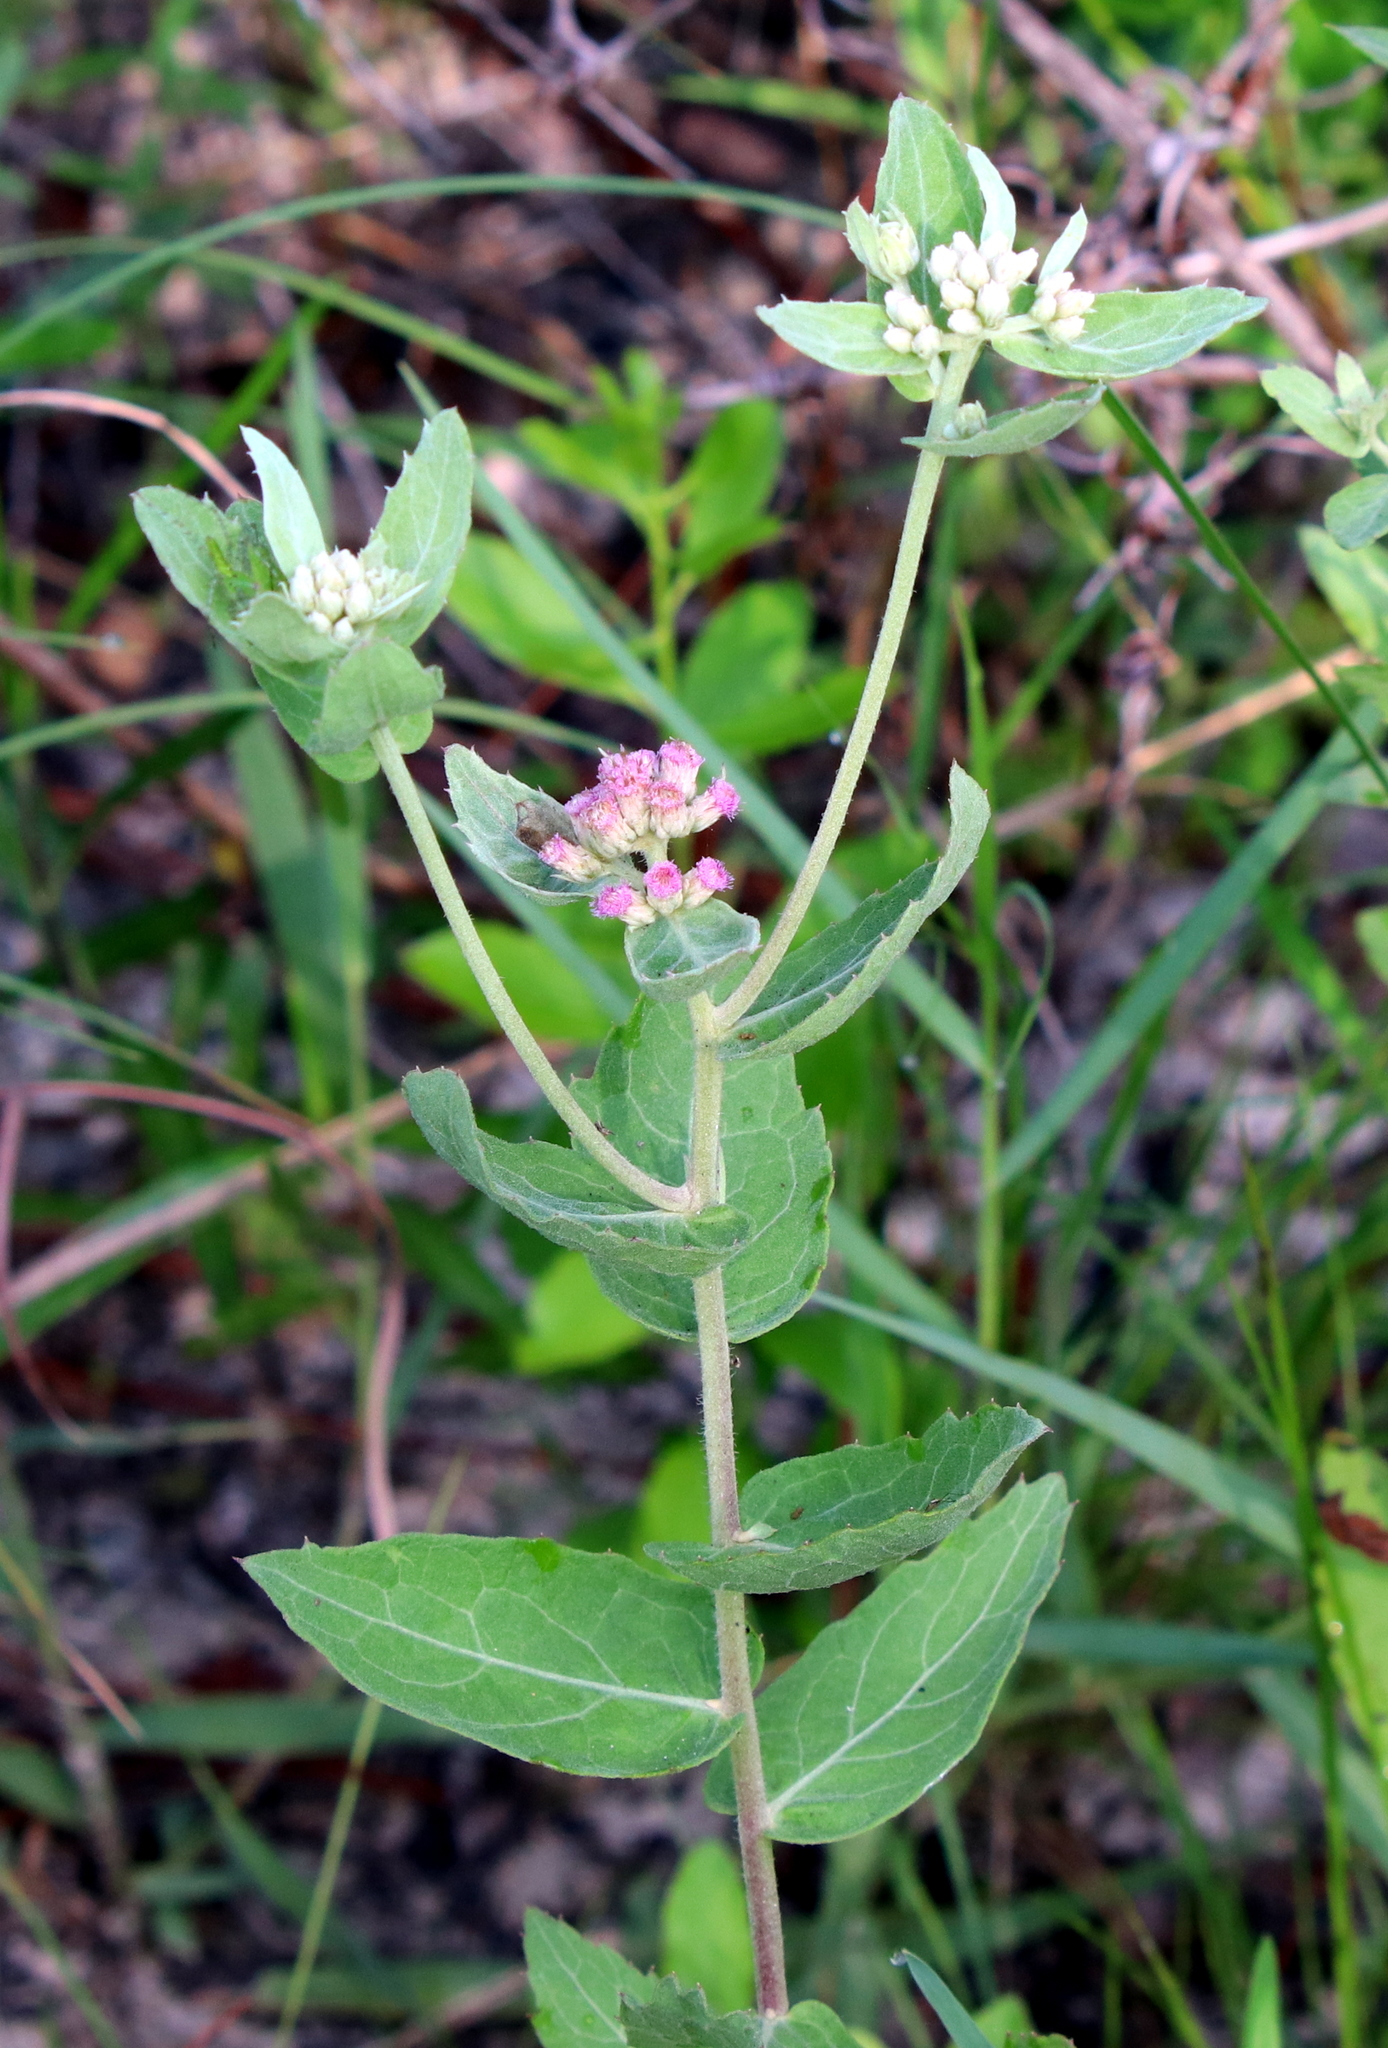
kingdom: Plantae
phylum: Tracheophyta
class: Magnoliopsida
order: Asterales
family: Asteraceae
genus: Pluchea
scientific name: Pluchea baccharis
